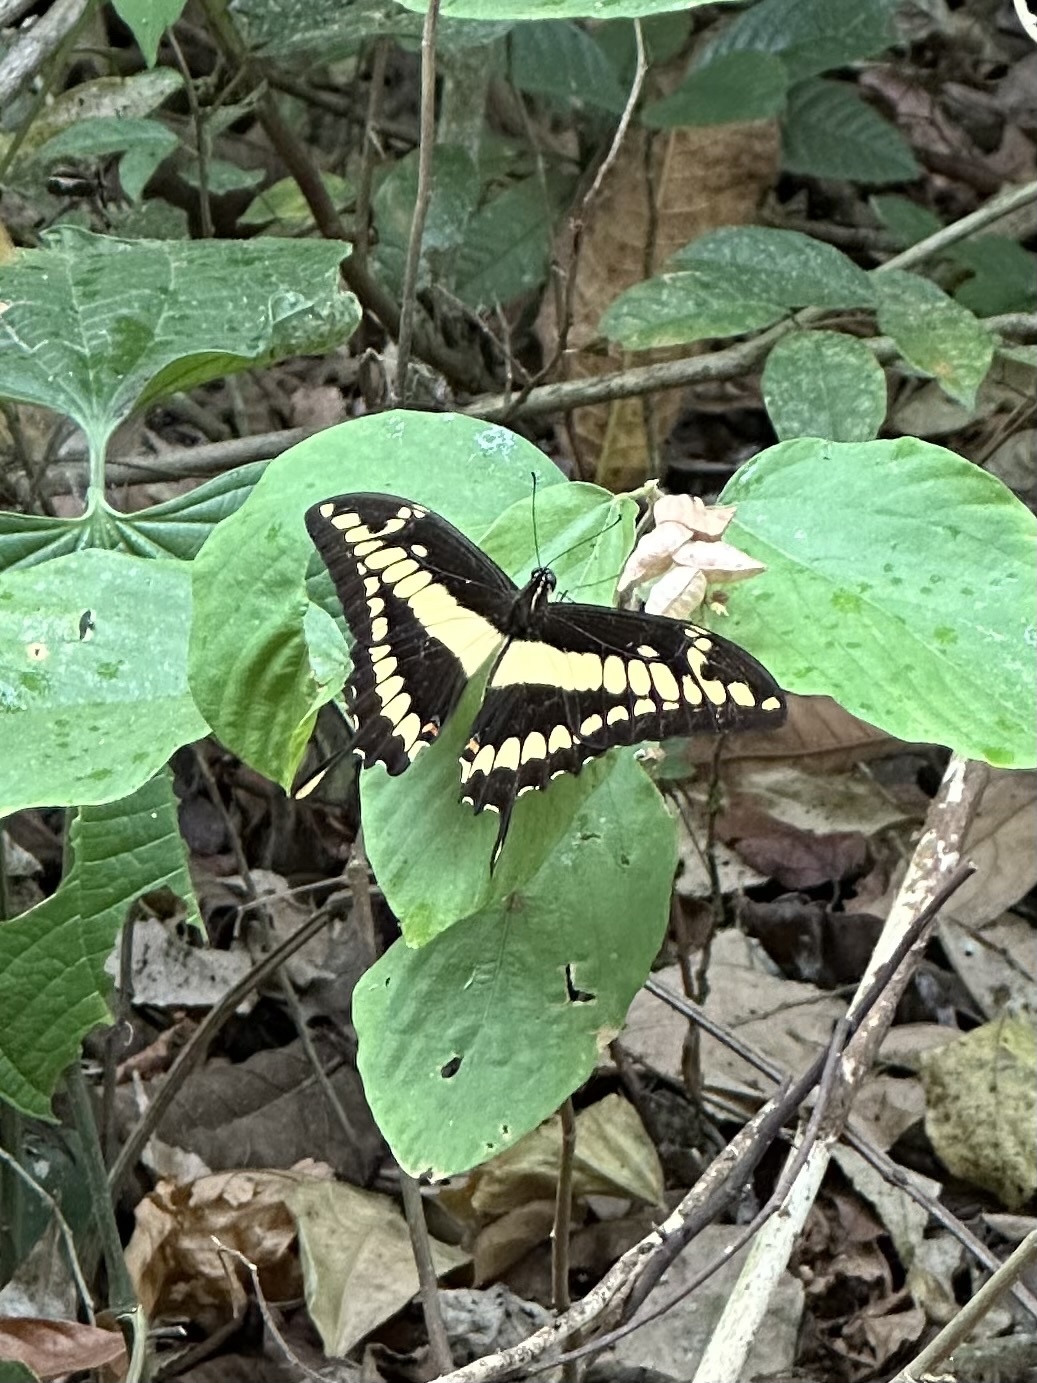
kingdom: Animalia
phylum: Arthropoda
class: Insecta
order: Lepidoptera
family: Papilionidae
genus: Papilio
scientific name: Papilio thoas
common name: King swallowtail
